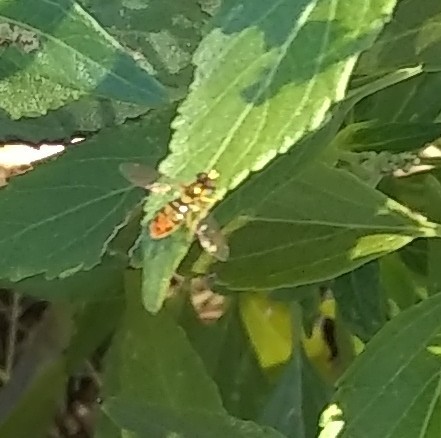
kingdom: Animalia
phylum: Arthropoda
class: Insecta
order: Diptera
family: Syrphidae
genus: Toxomerus
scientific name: Toxomerus marginatus
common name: Syrphid fly
